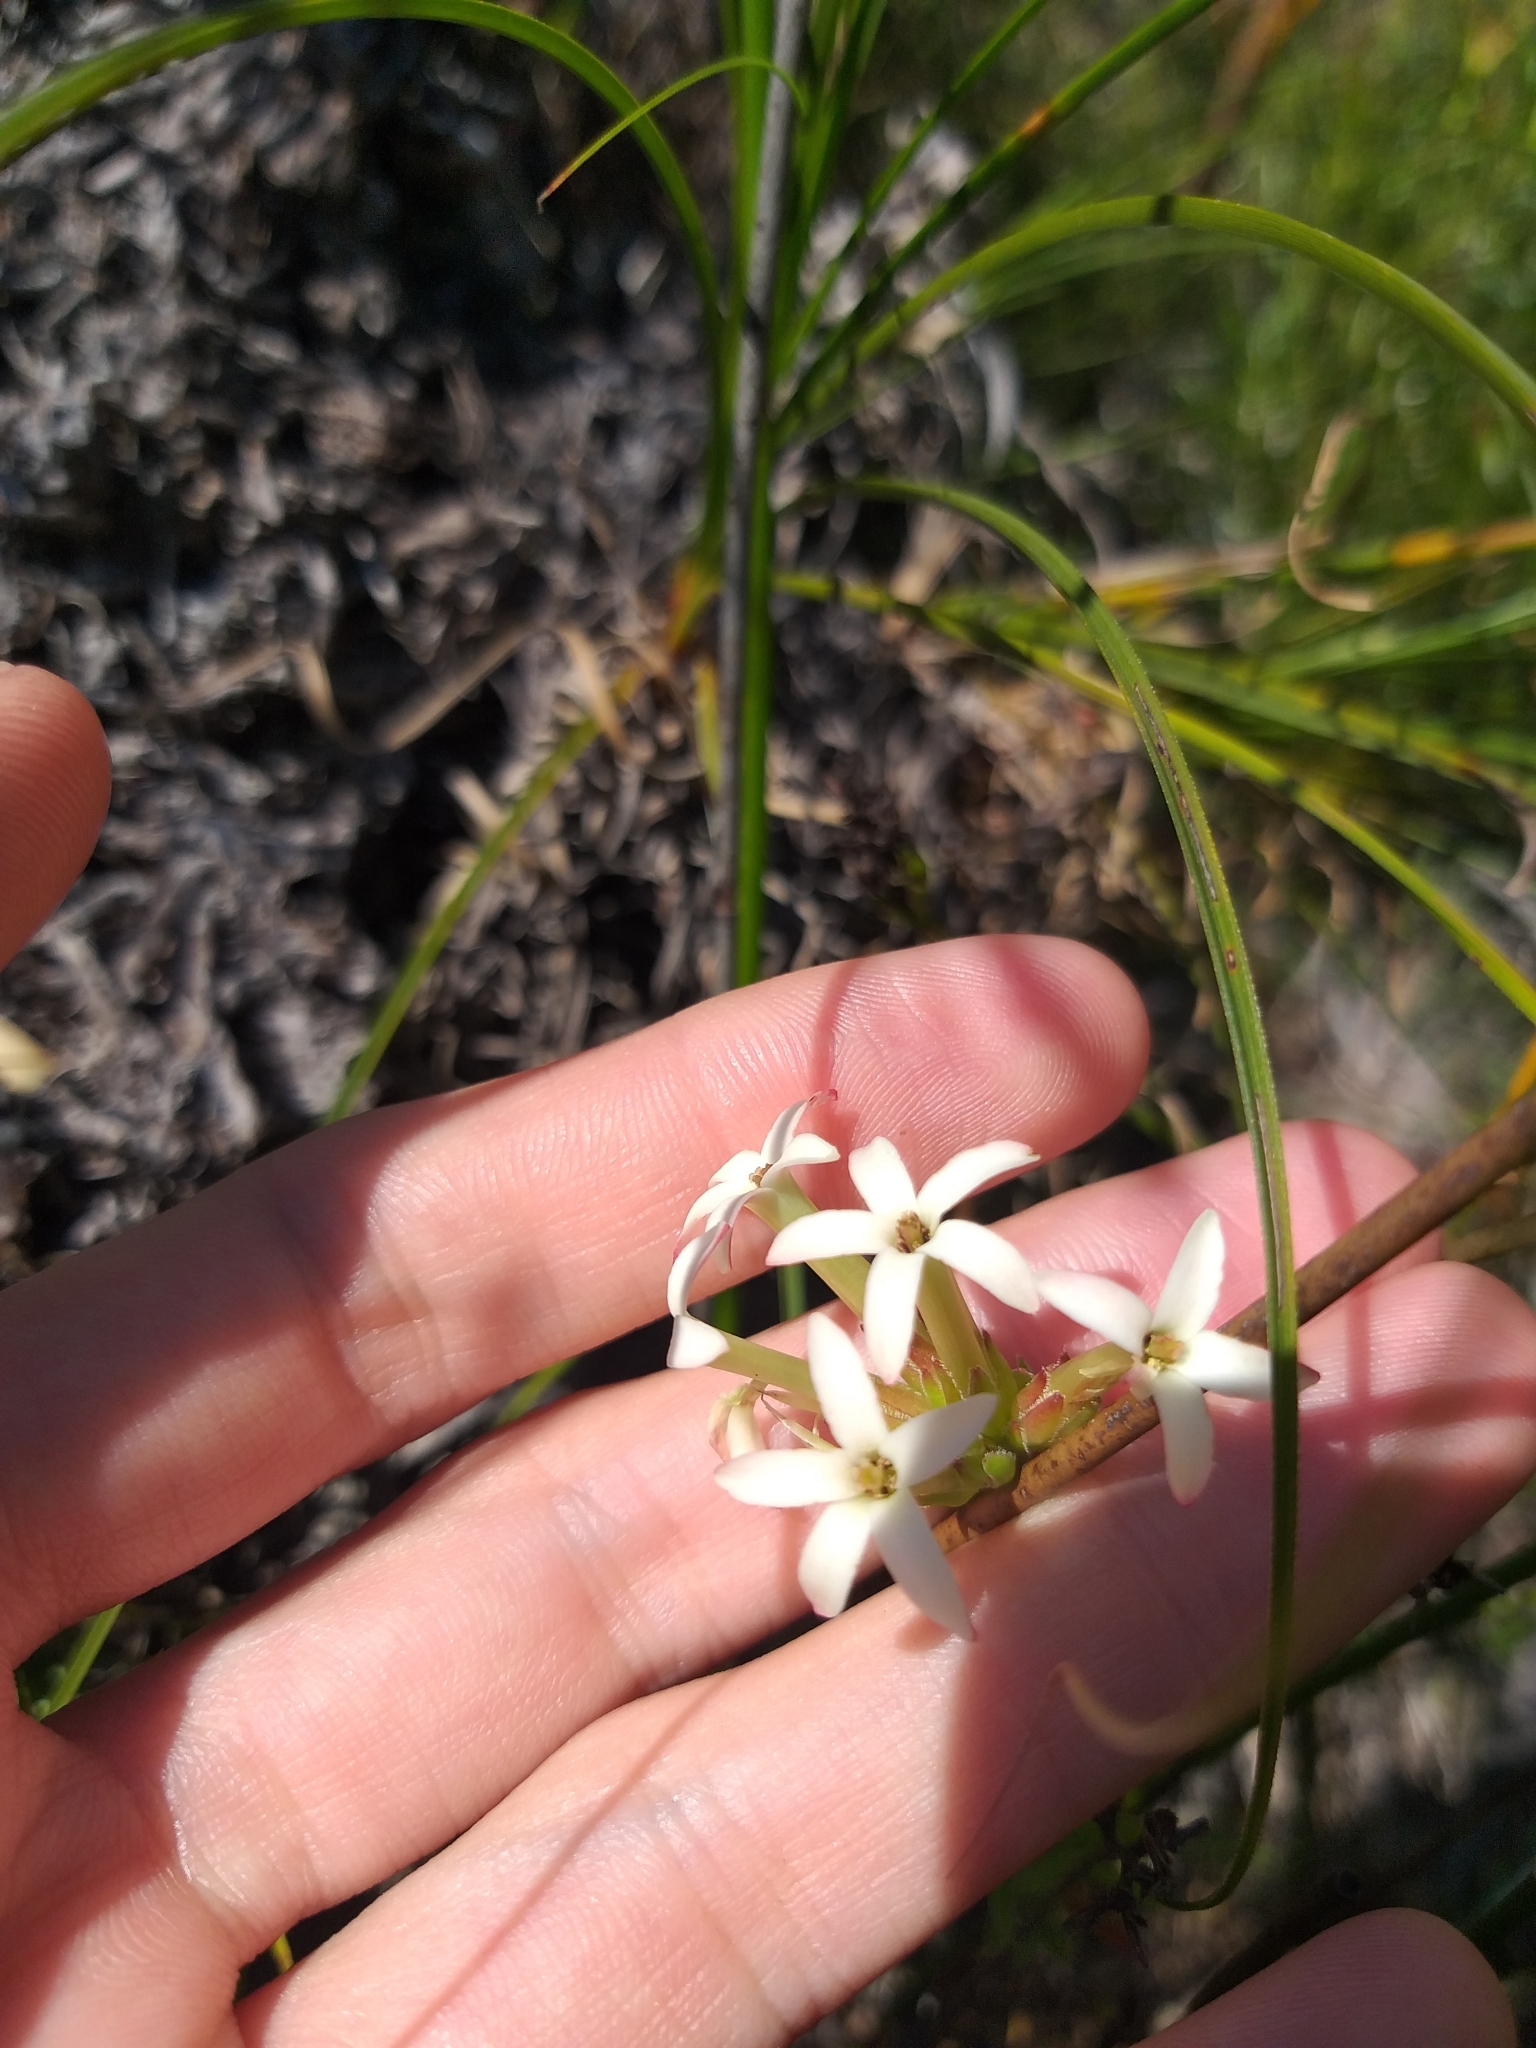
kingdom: Plantae
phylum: Tracheophyta
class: Magnoliopsida
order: Saxifragales
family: Crassulaceae
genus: Crassula
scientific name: Crassula fascicularis
